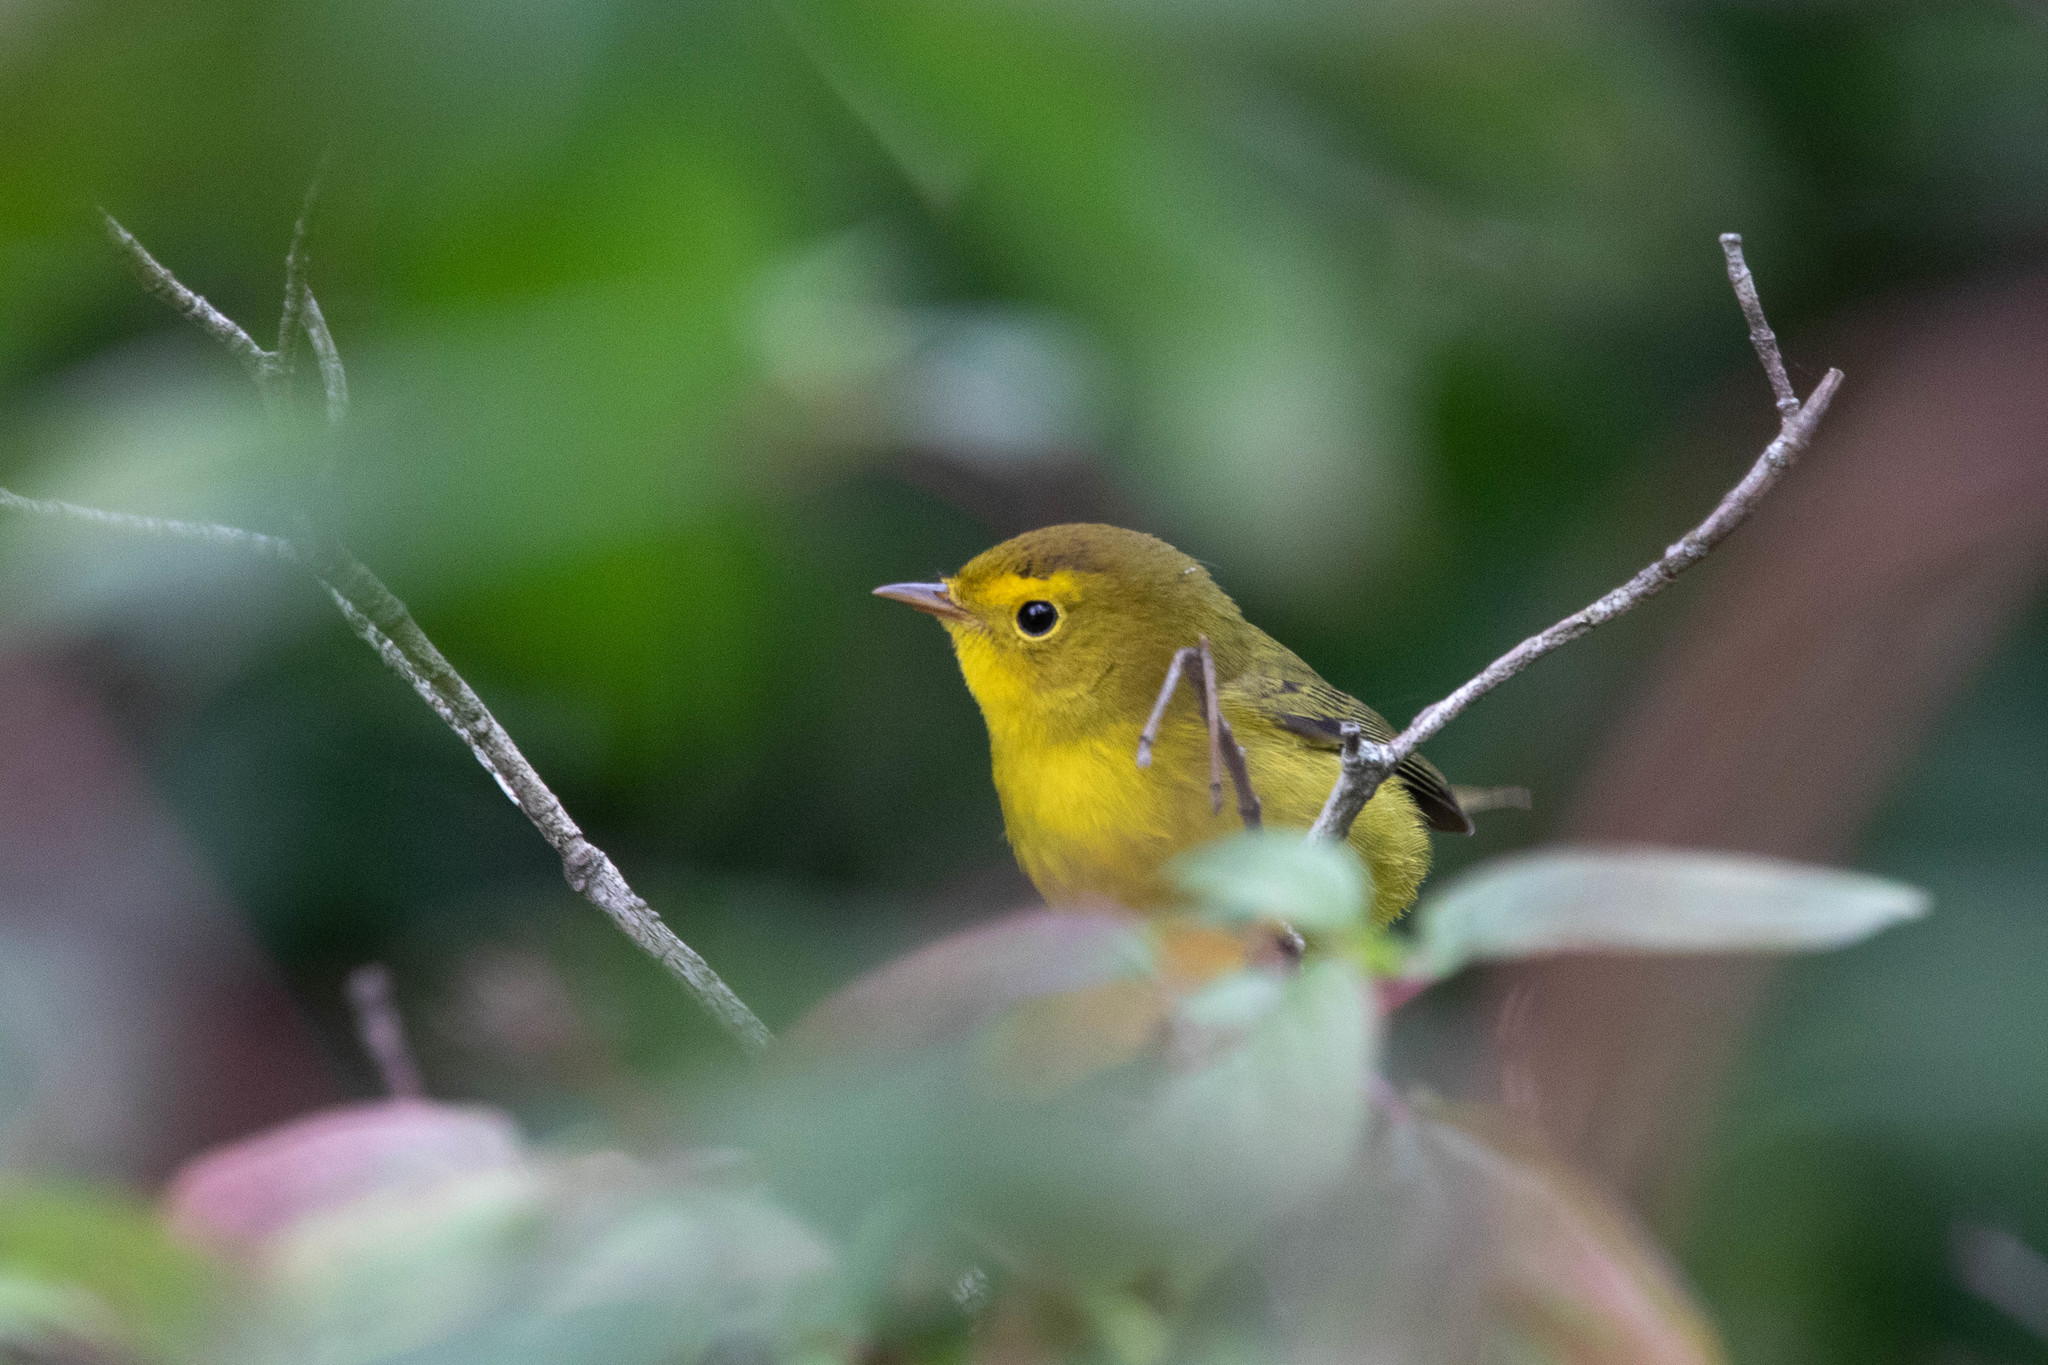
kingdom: Animalia
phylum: Chordata
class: Aves
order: Passeriformes
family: Parulidae
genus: Cardellina
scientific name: Cardellina pusilla
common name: Wilson's warbler
